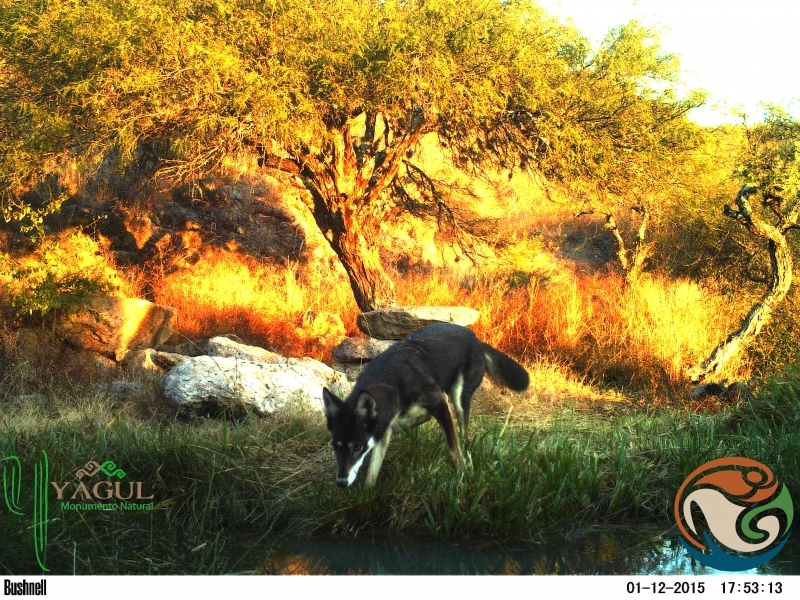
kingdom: Animalia
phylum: Chordata
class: Mammalia
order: Carnivora
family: Canidae
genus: Canis
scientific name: Canis latrans
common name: Coyote
